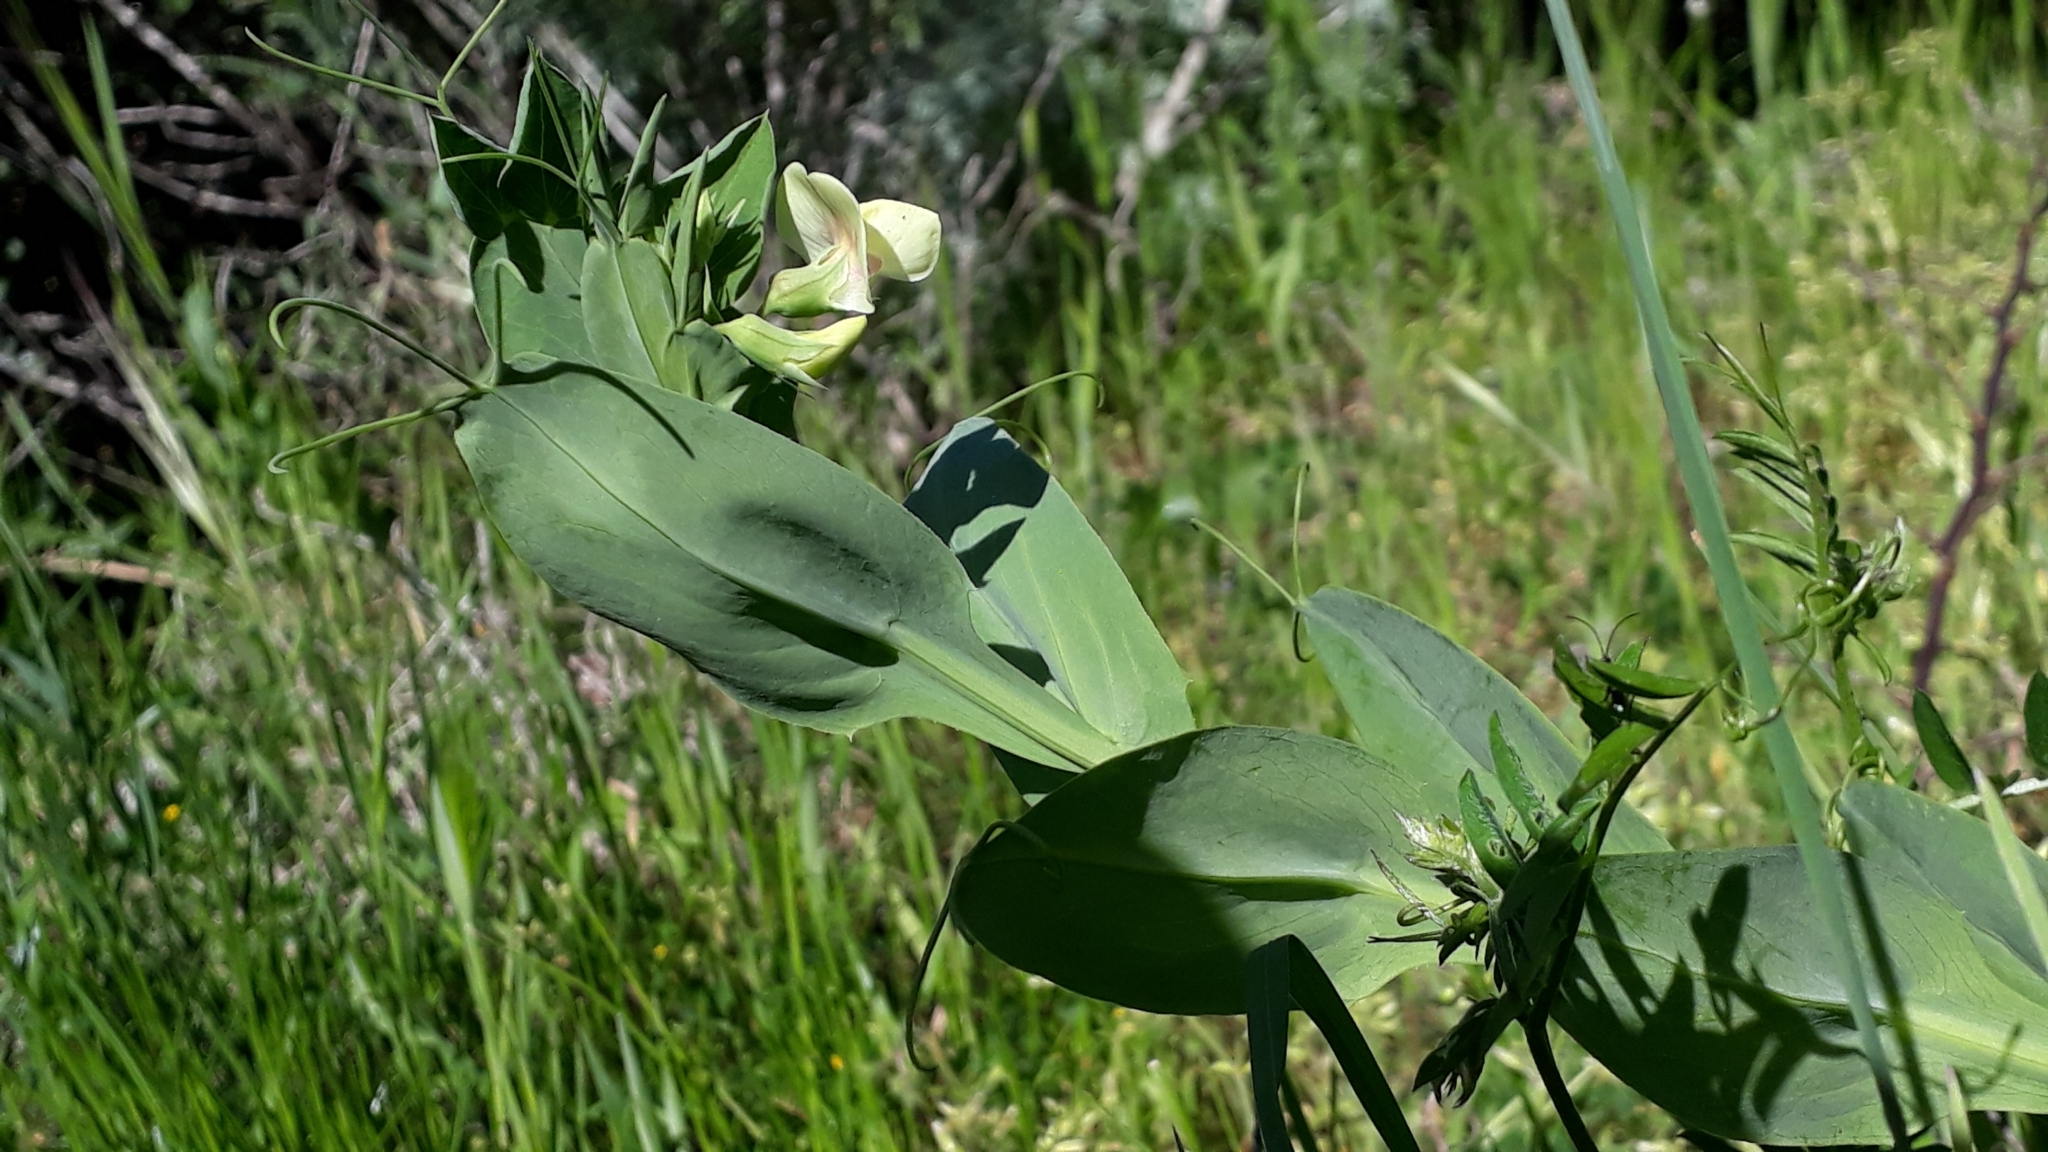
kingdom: Plantae
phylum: Tracheophyta
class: Magnoliopsida
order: Fabales
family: Fabaceae
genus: Lathyrus
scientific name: Lathyrus ochrus
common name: Winged vetchling
